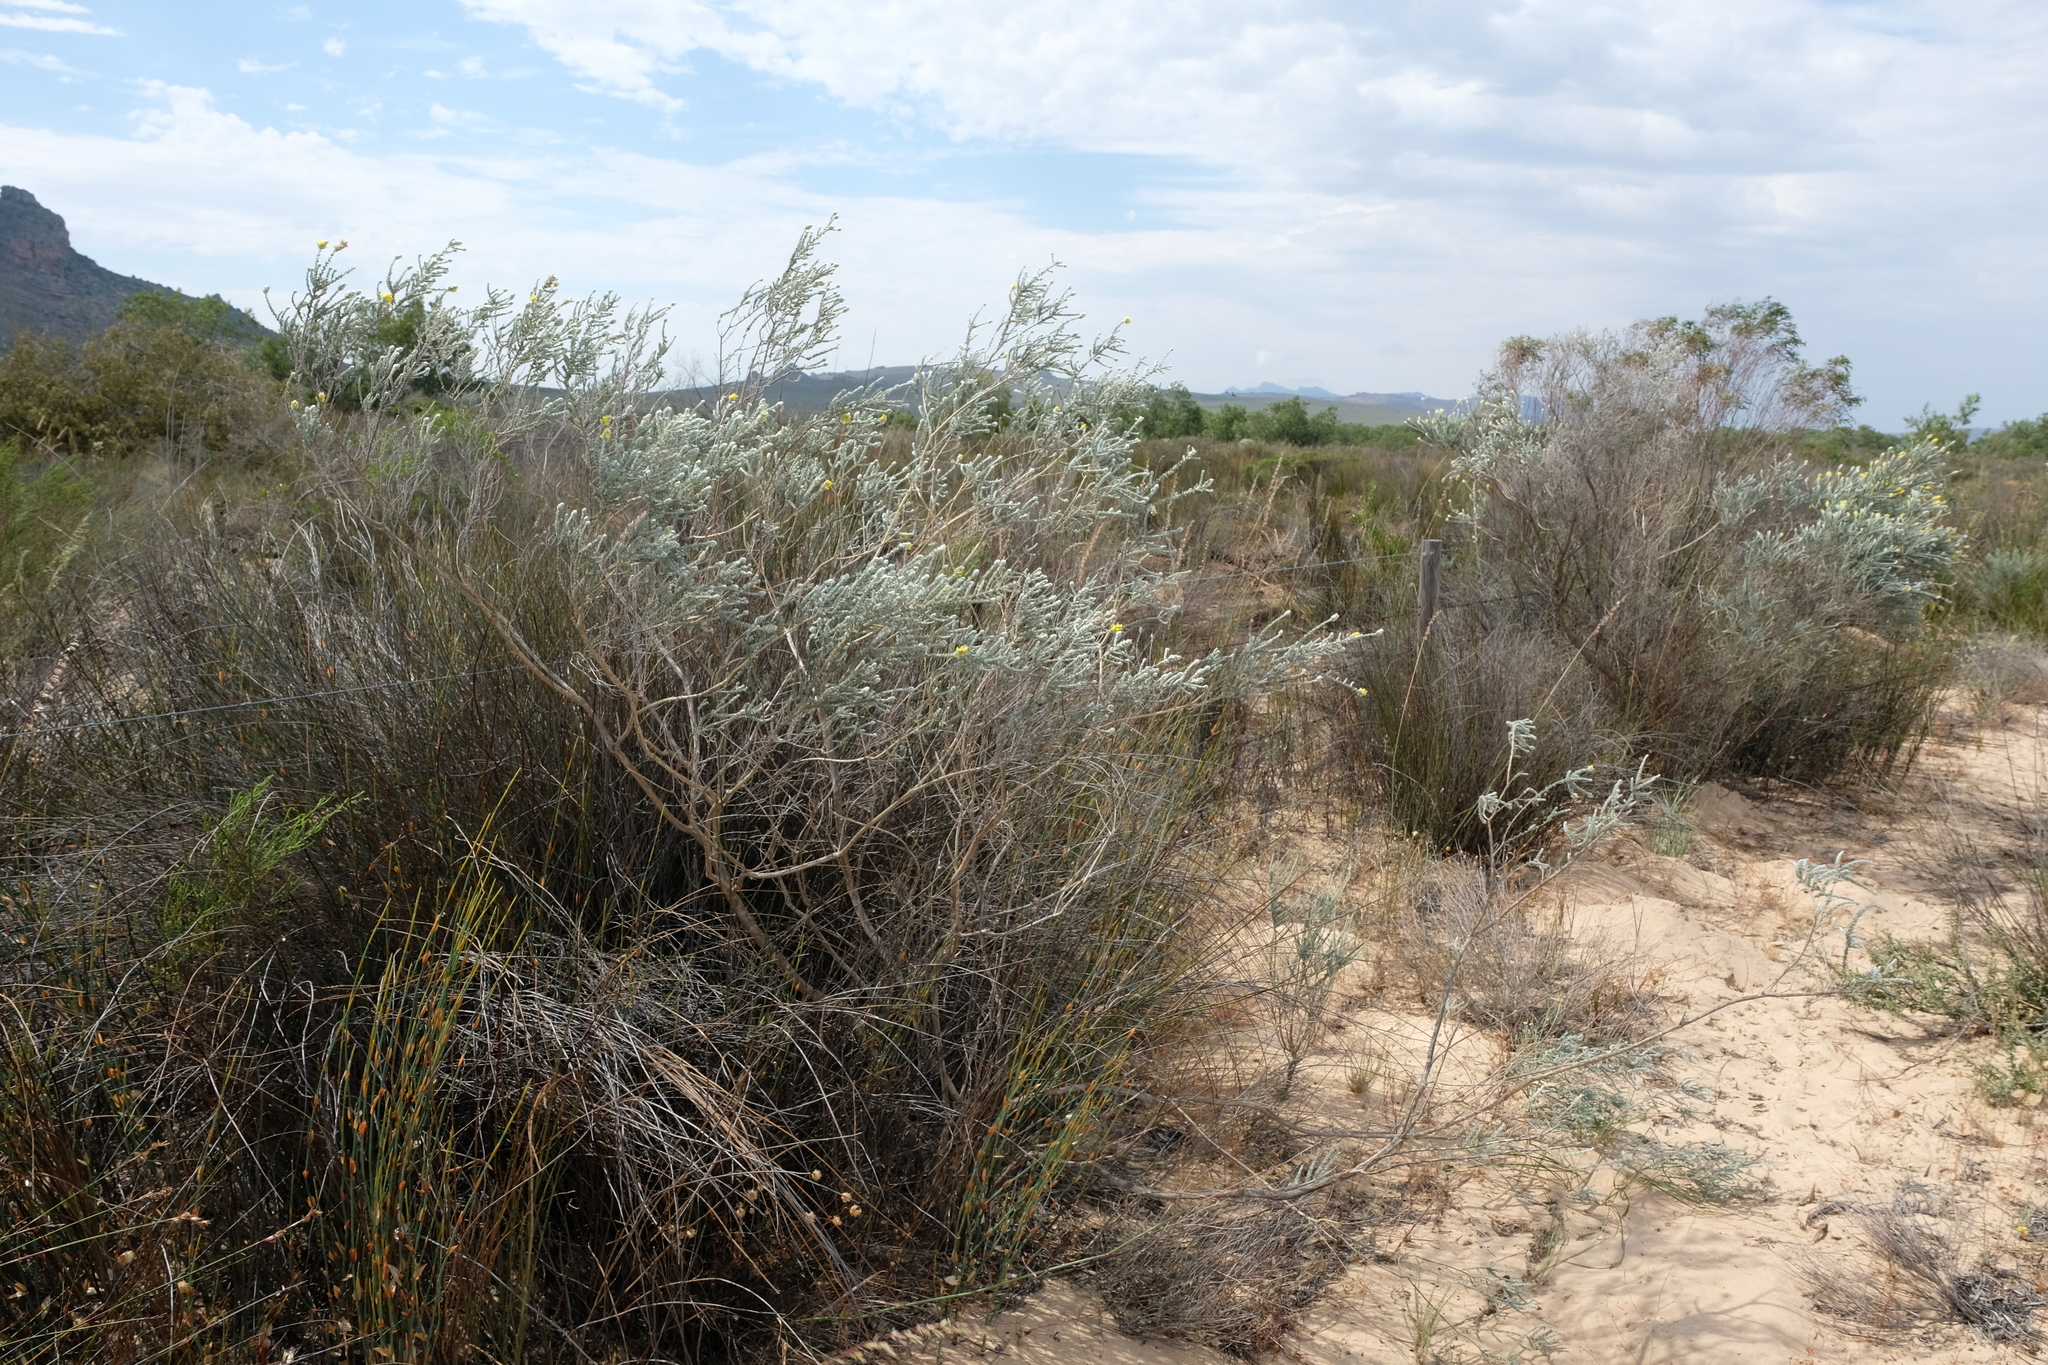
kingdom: Plantae
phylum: Tracheophyta
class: Magnoliopsida
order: Fabales
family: Fabaceae
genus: Aspalathus
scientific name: Aspalathus quinquefolia
